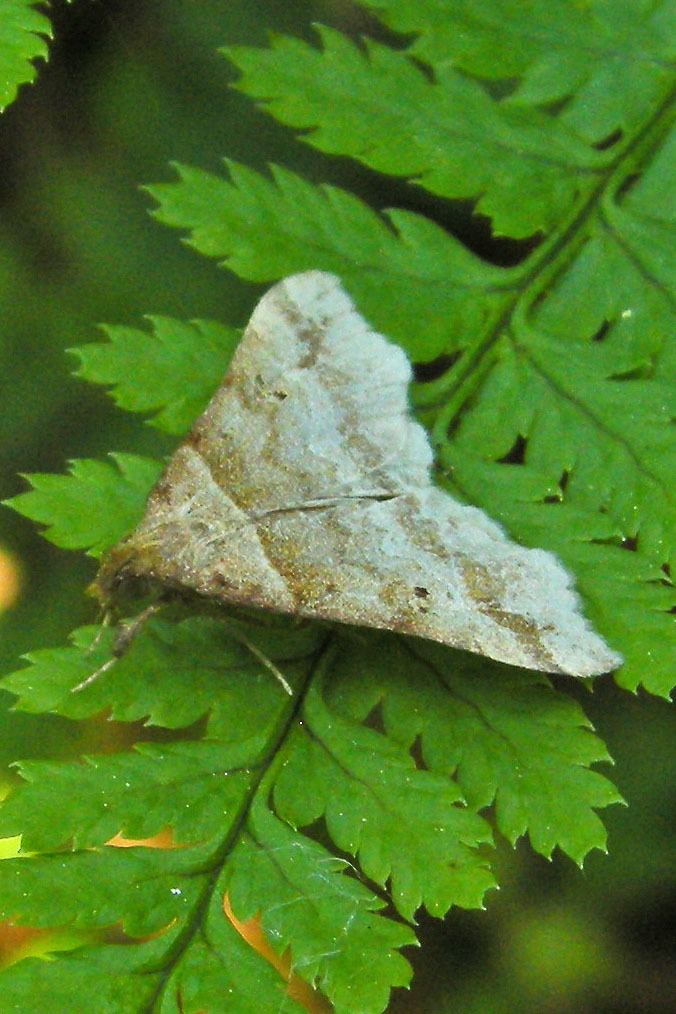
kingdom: Animalia
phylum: Arthropoda
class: Insecta
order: Lepidoptera
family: Erebidae
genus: Phaeolita
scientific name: Phaeolita pyramusalis
